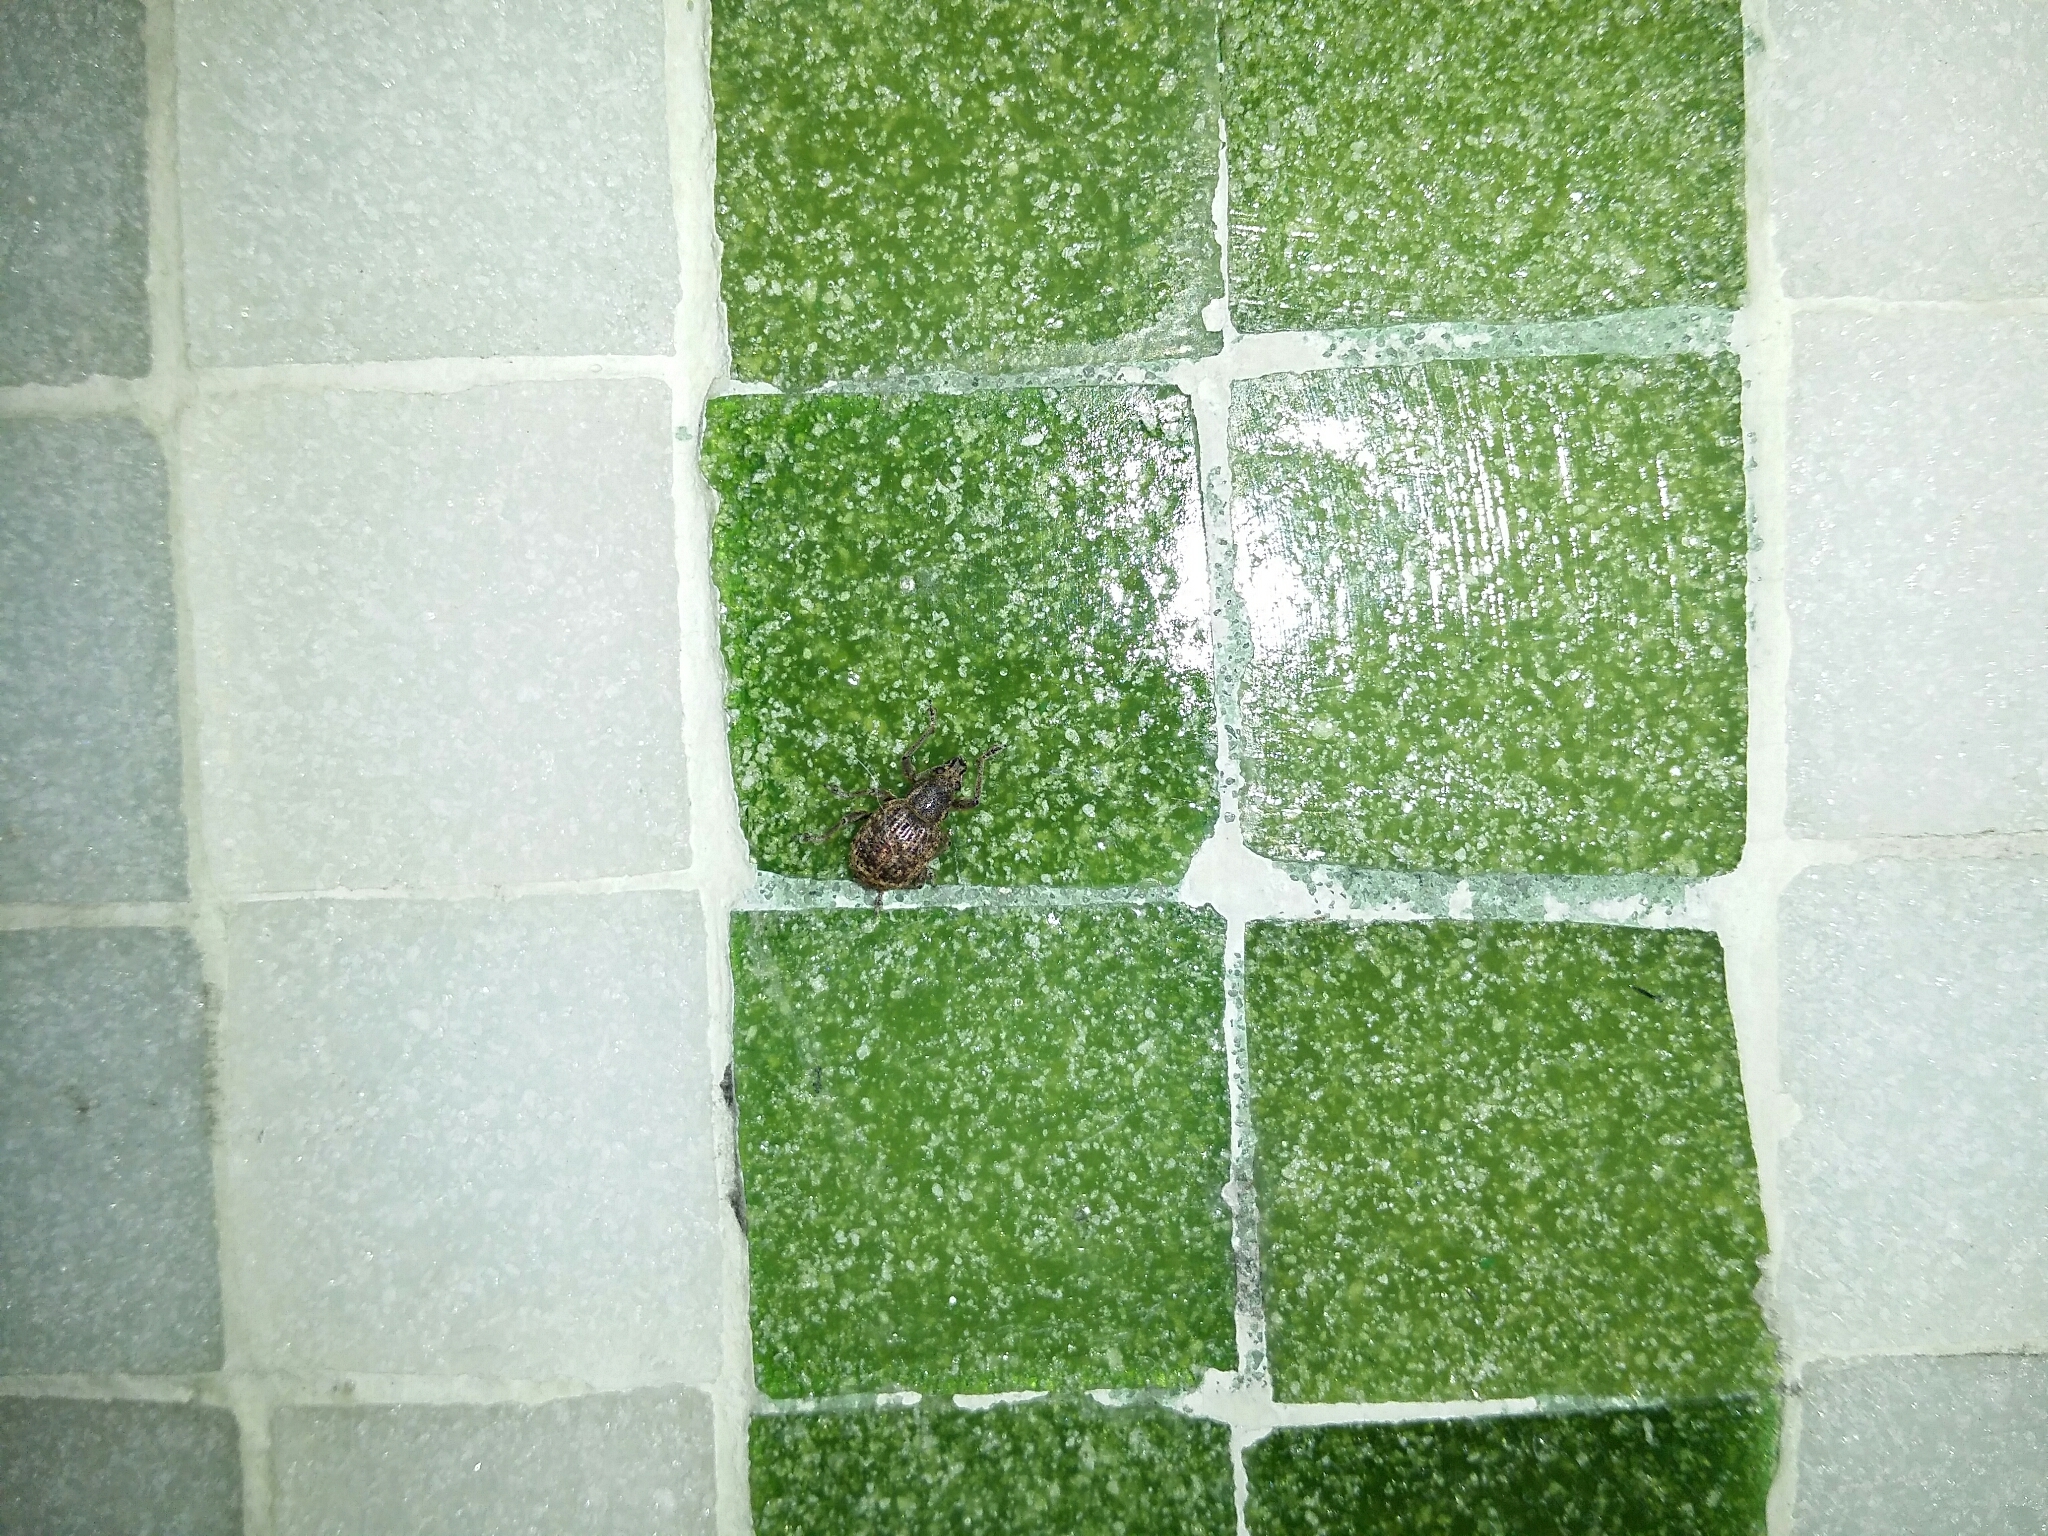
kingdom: Animalia
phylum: Arthropoda
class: Insecta
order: Coleoptera
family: Curculionidae
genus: Phlyctinus
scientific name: Phlyctinus callosus
